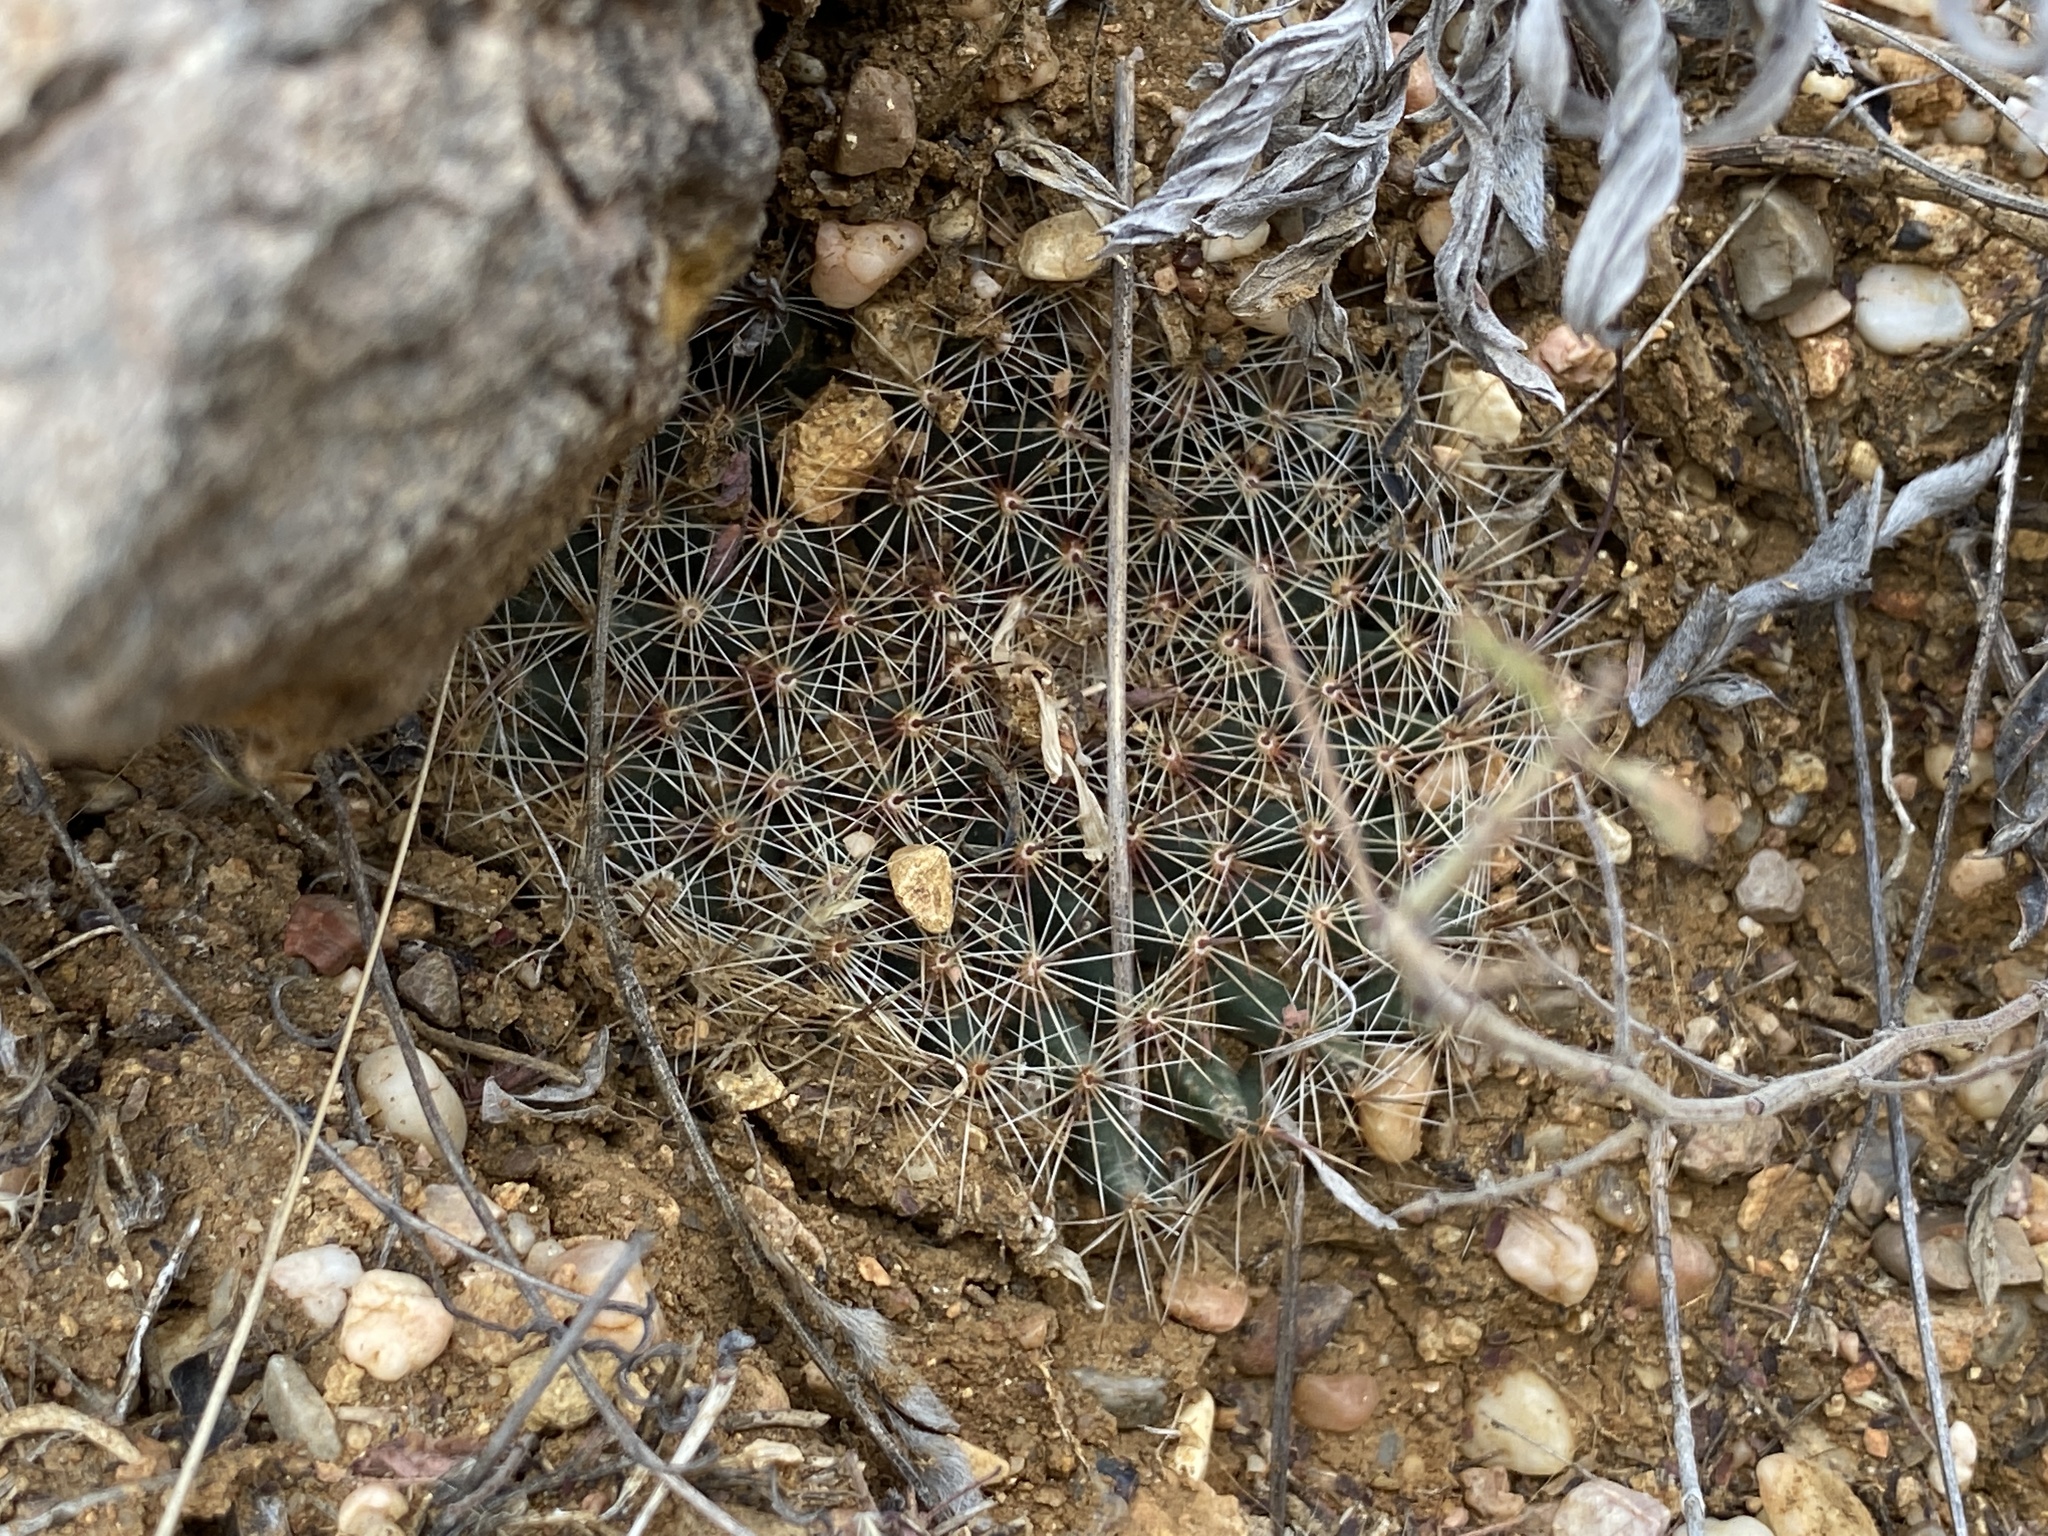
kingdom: Plantae
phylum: Tracheophyta
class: Magnoliopsida
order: Caryophyllales
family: Cactaceae
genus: Mammillaria
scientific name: Mammillaria heyderi
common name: Little nipple cactus
